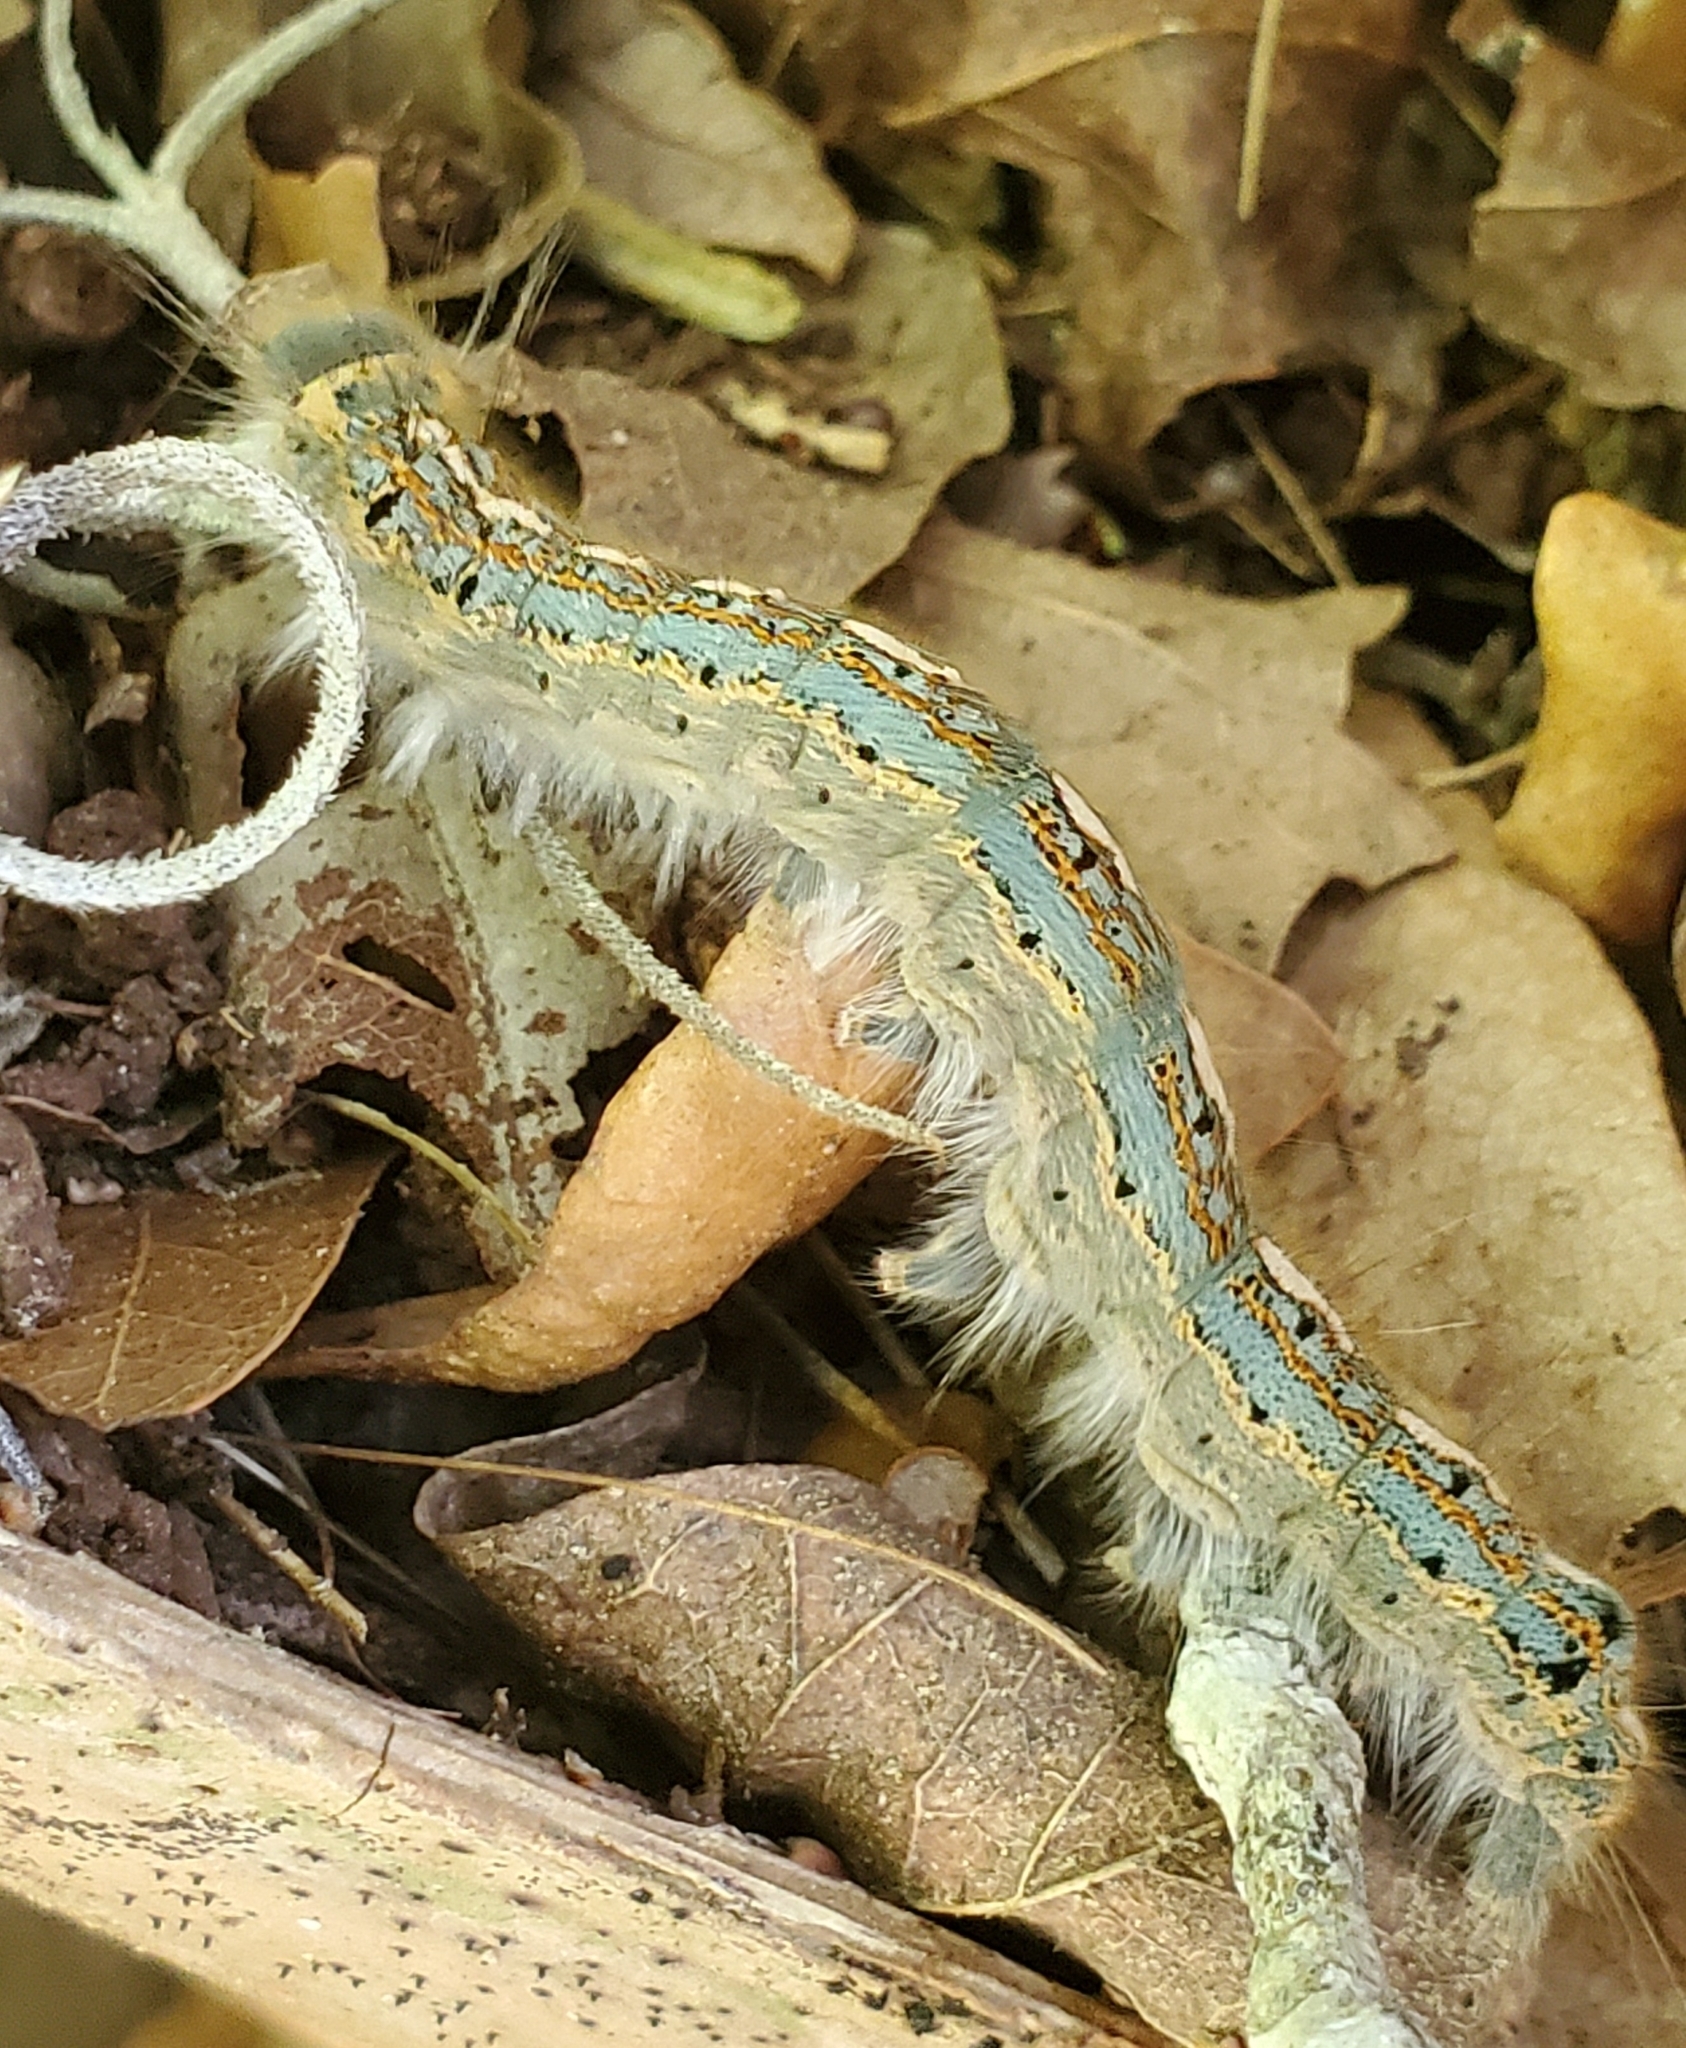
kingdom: Animalia
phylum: Arthropoda
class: Insecta
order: Lepidoptera
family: Lasiocampidae
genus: Malacosoma
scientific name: Malacosoma disstria
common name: Forest tent caterpillar
